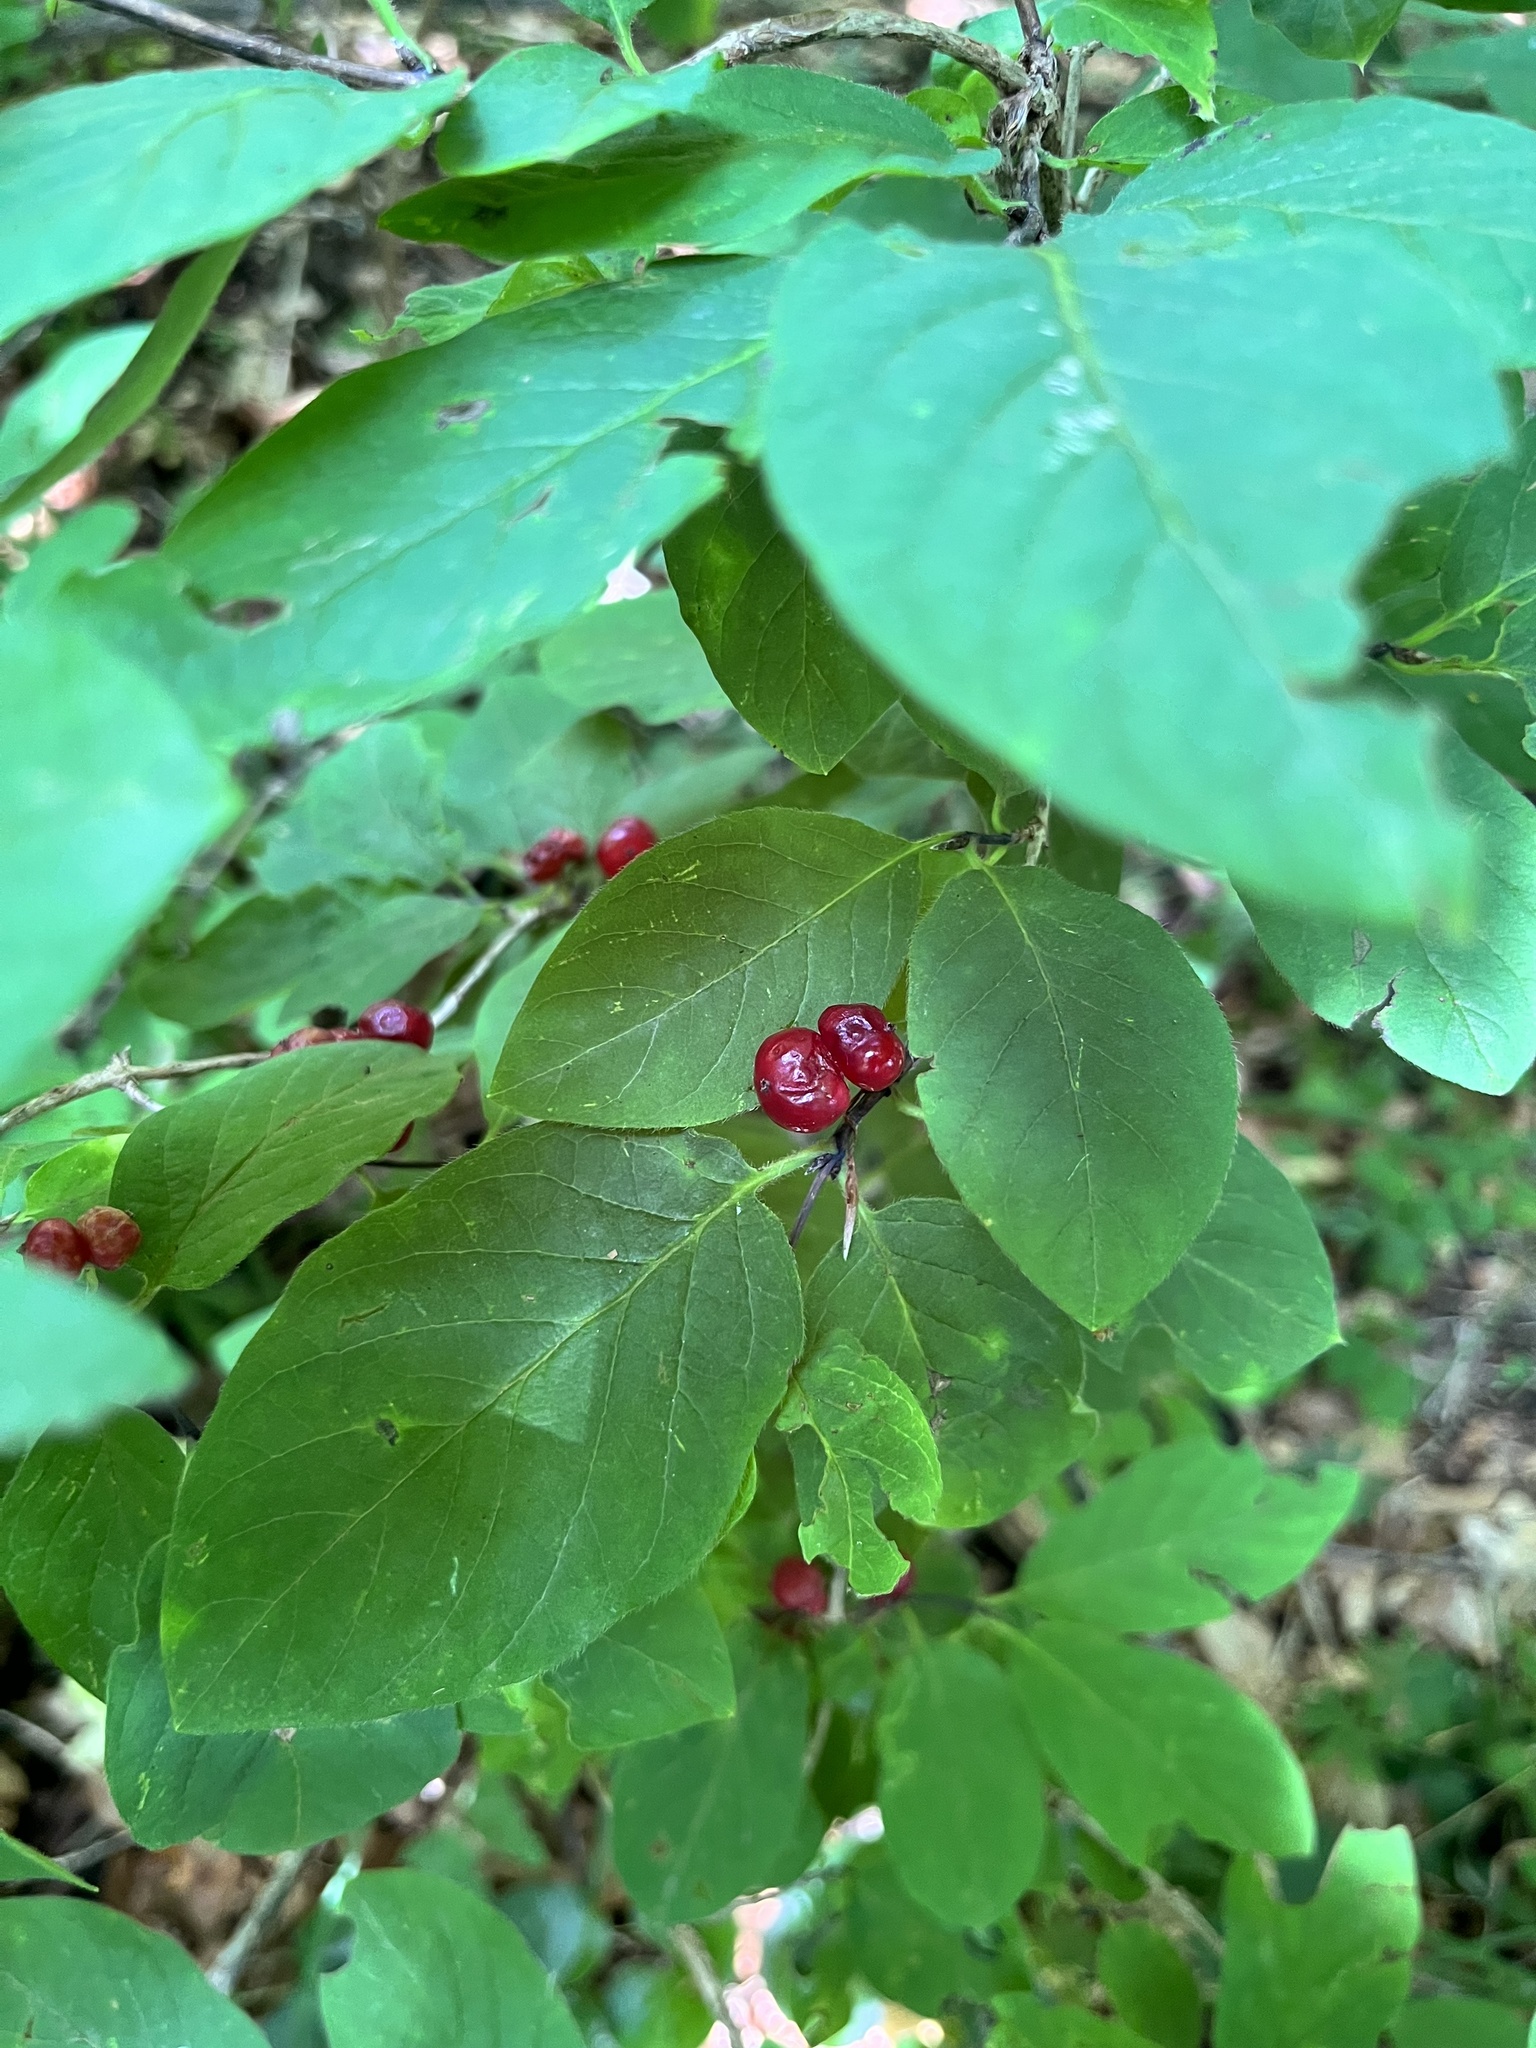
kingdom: Plantae
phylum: Tracheophyta
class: Magnoliopsida
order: Dipsacales
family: Caprifoliaceae
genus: Lonicera
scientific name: Lonicera xylosteum
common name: Fly honeysuckle
